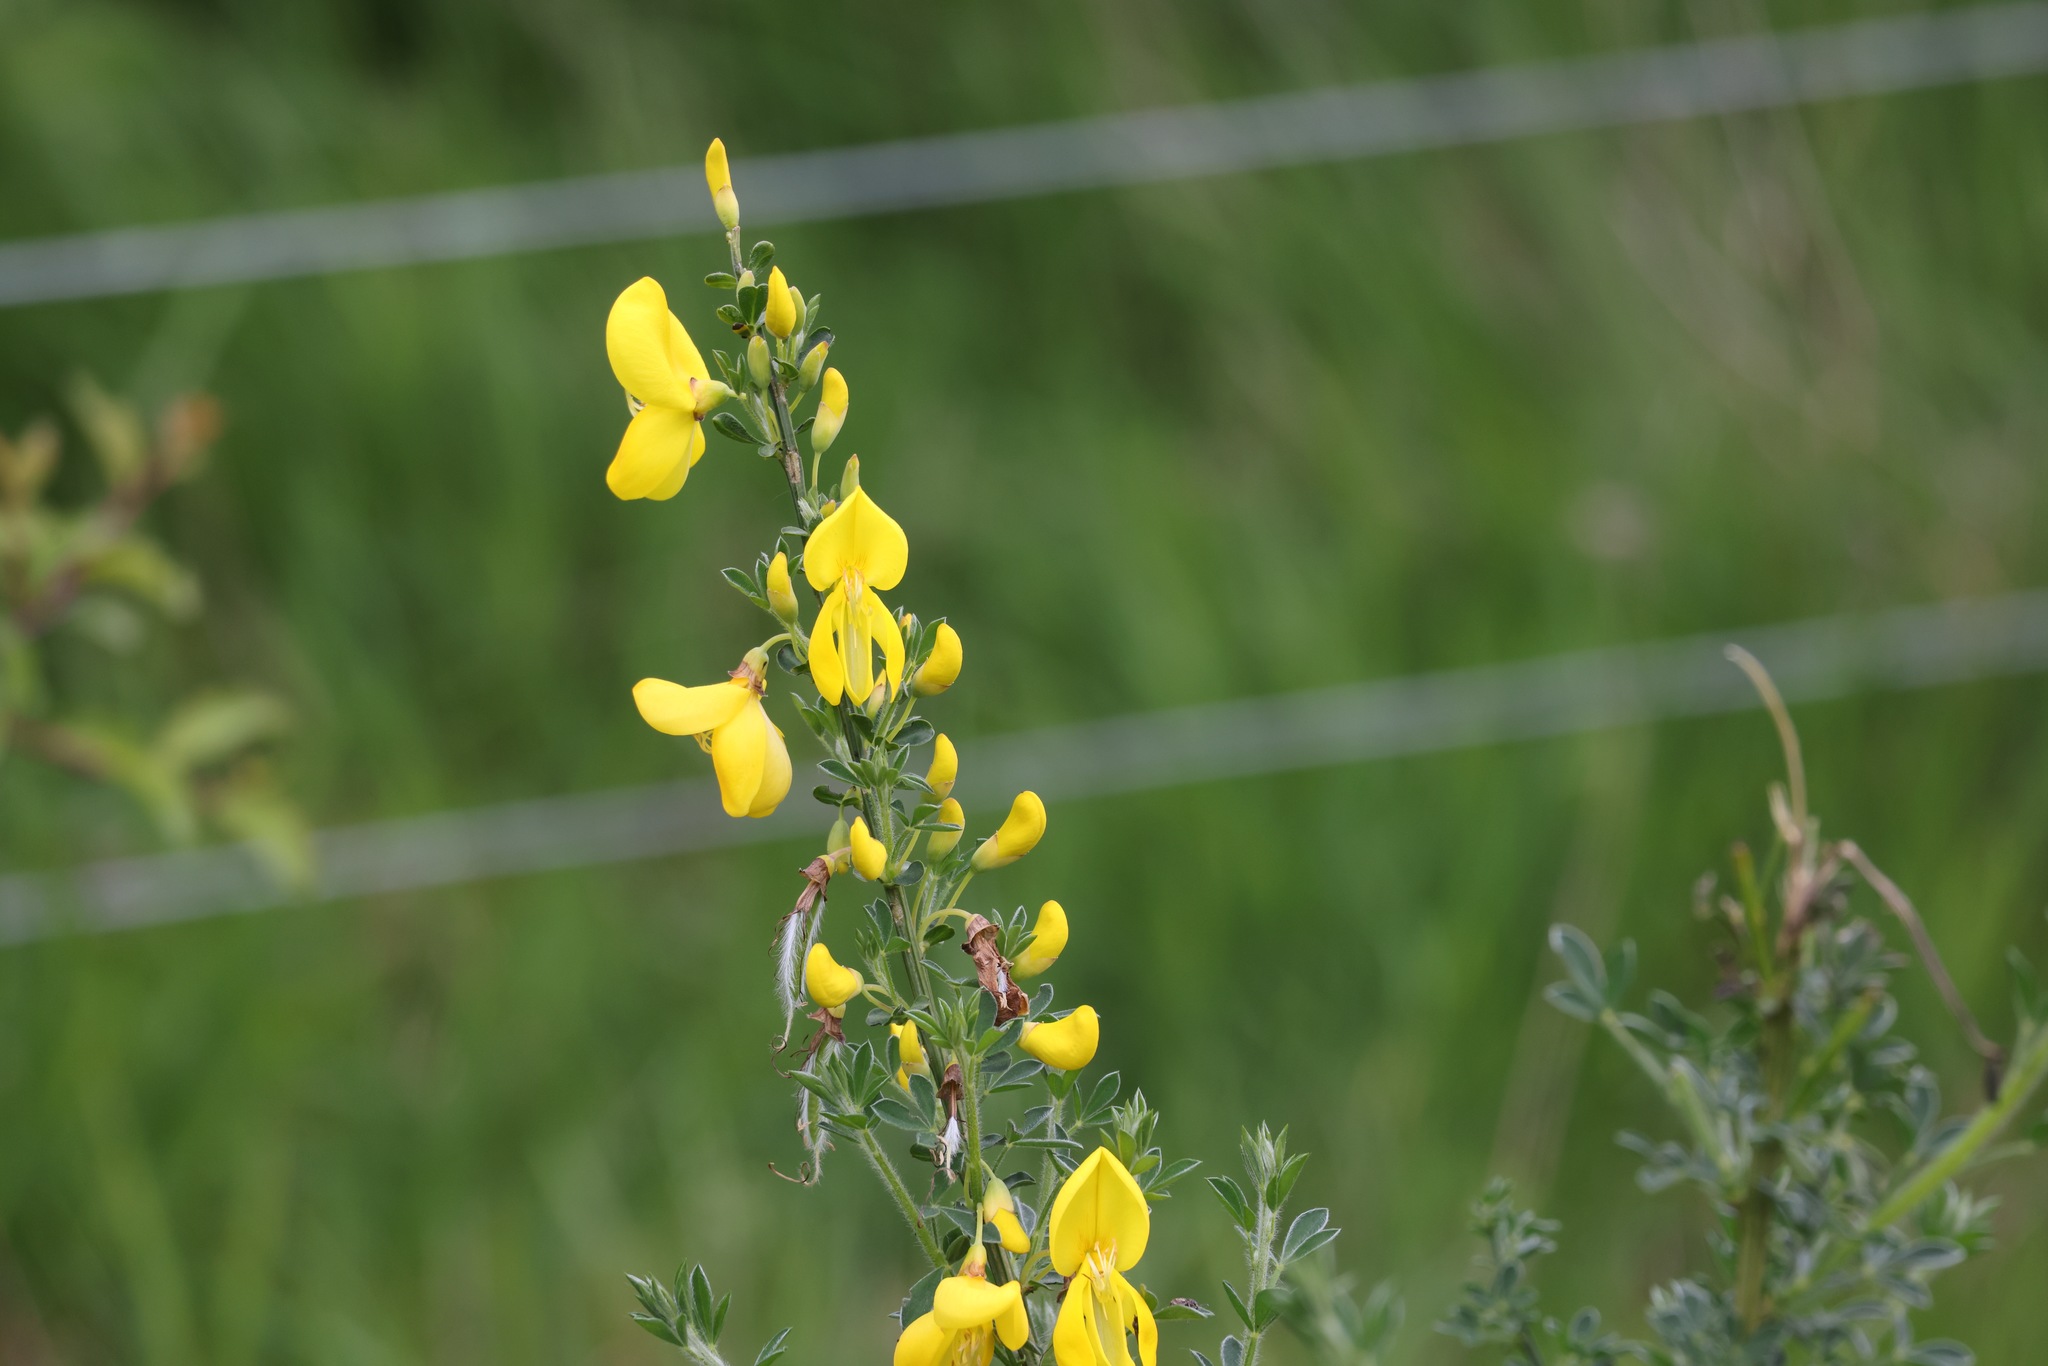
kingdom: Plantae
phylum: Tracheophyta
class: Magnoliopsida
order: Fabales
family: Fabaceae
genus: Cytisus
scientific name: Cytisus scoparius
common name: Scotch broom
